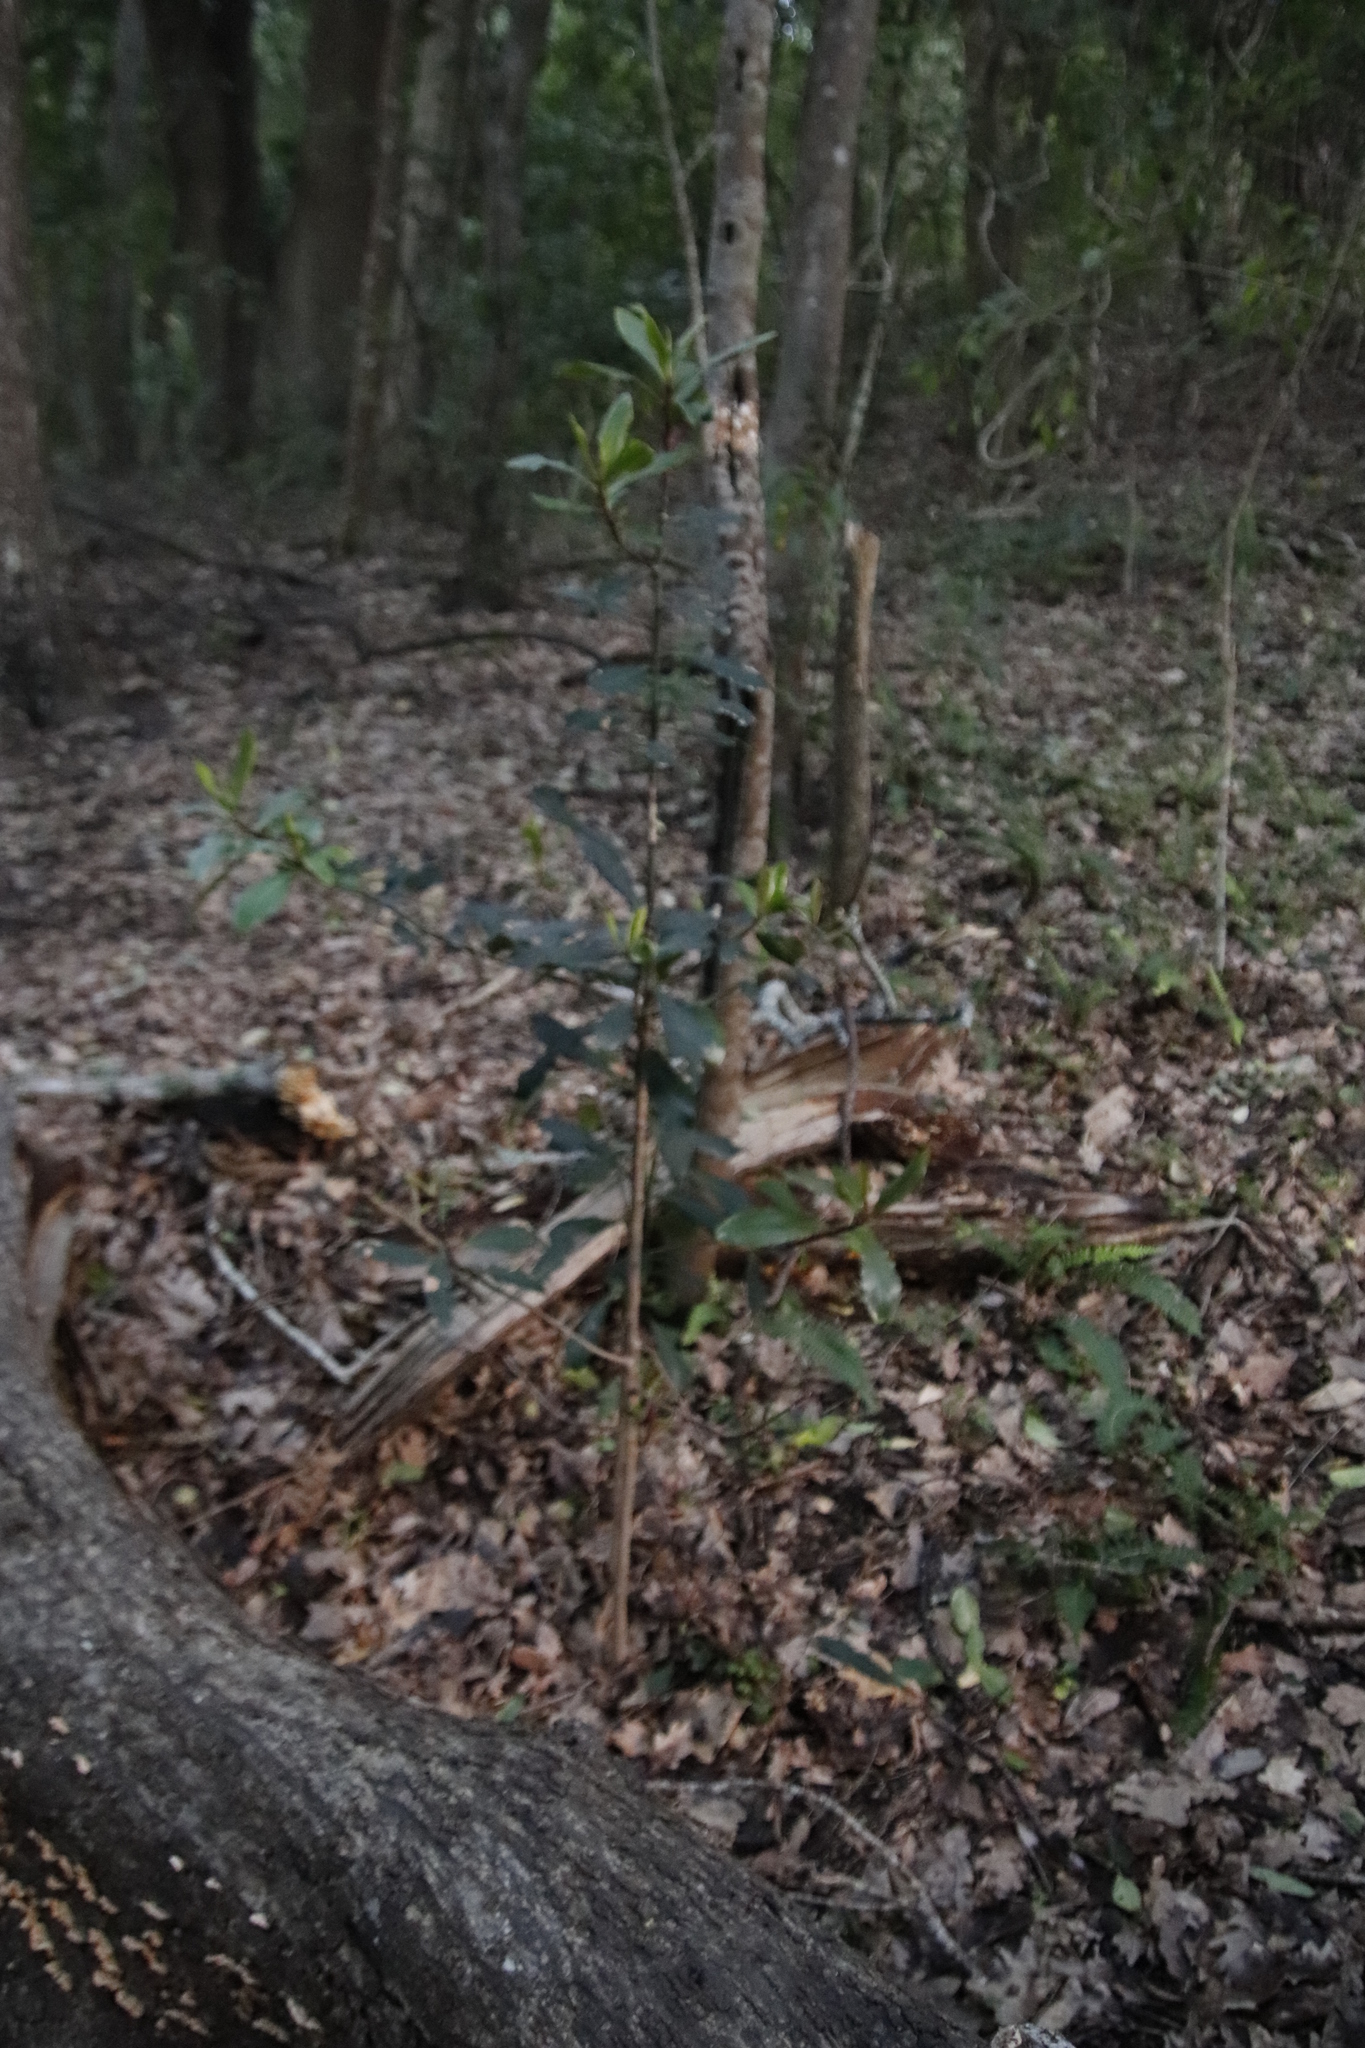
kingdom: Plantae
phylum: Tracheophyta
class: Magnoliopsida
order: Ericales
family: Primulaceae
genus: Myrsine
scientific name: Myrsine melanophloeos
